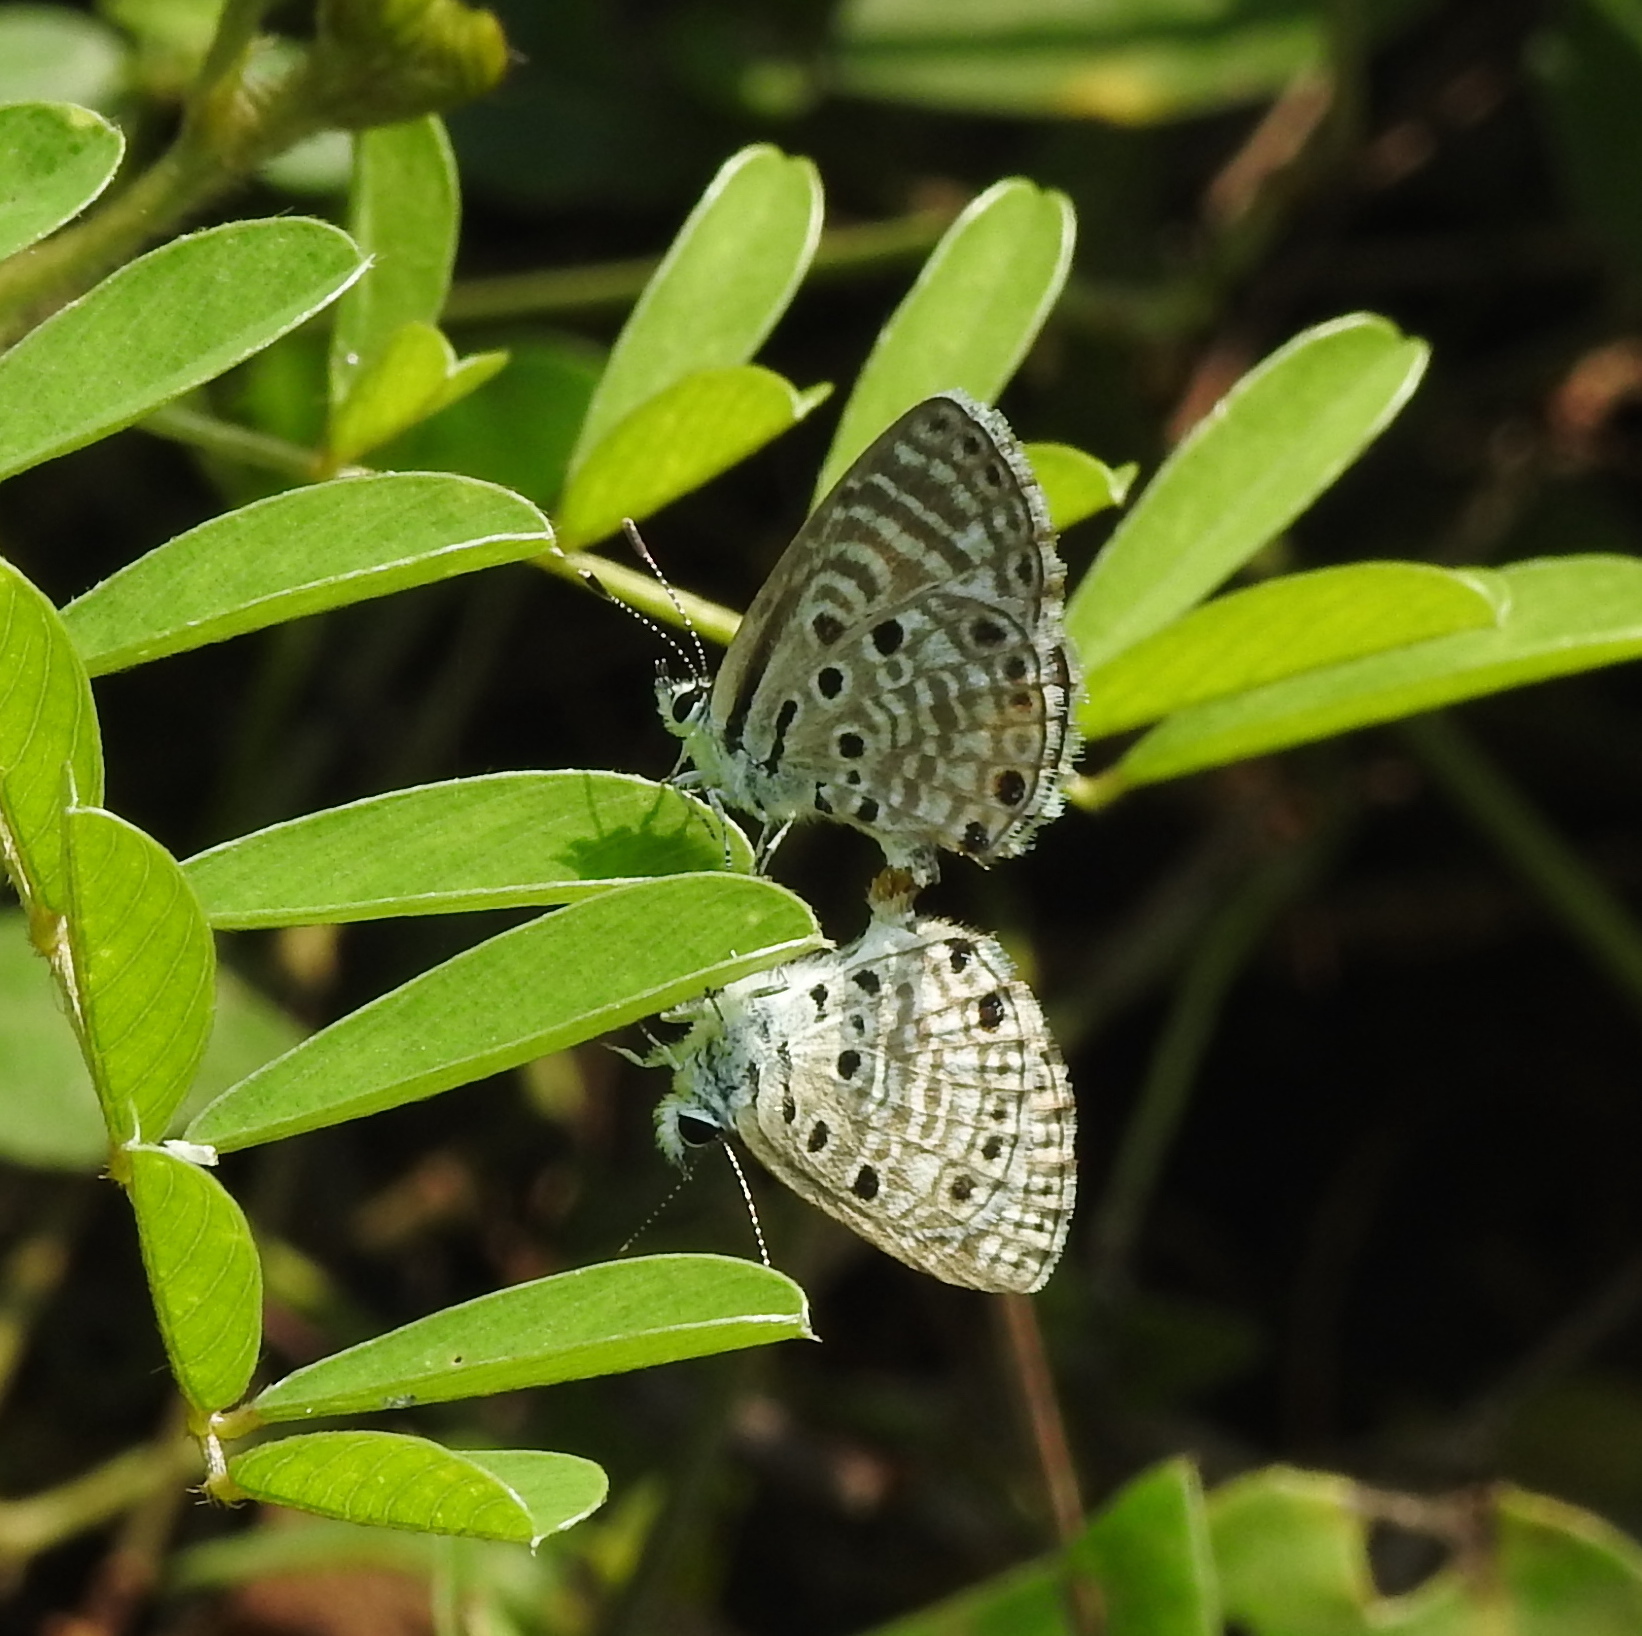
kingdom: Animalia
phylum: Arthropoda
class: Insecta
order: Lepidoptera
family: Lycaenidae
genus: Azanus
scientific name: Azanus jesous
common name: African babul blue
